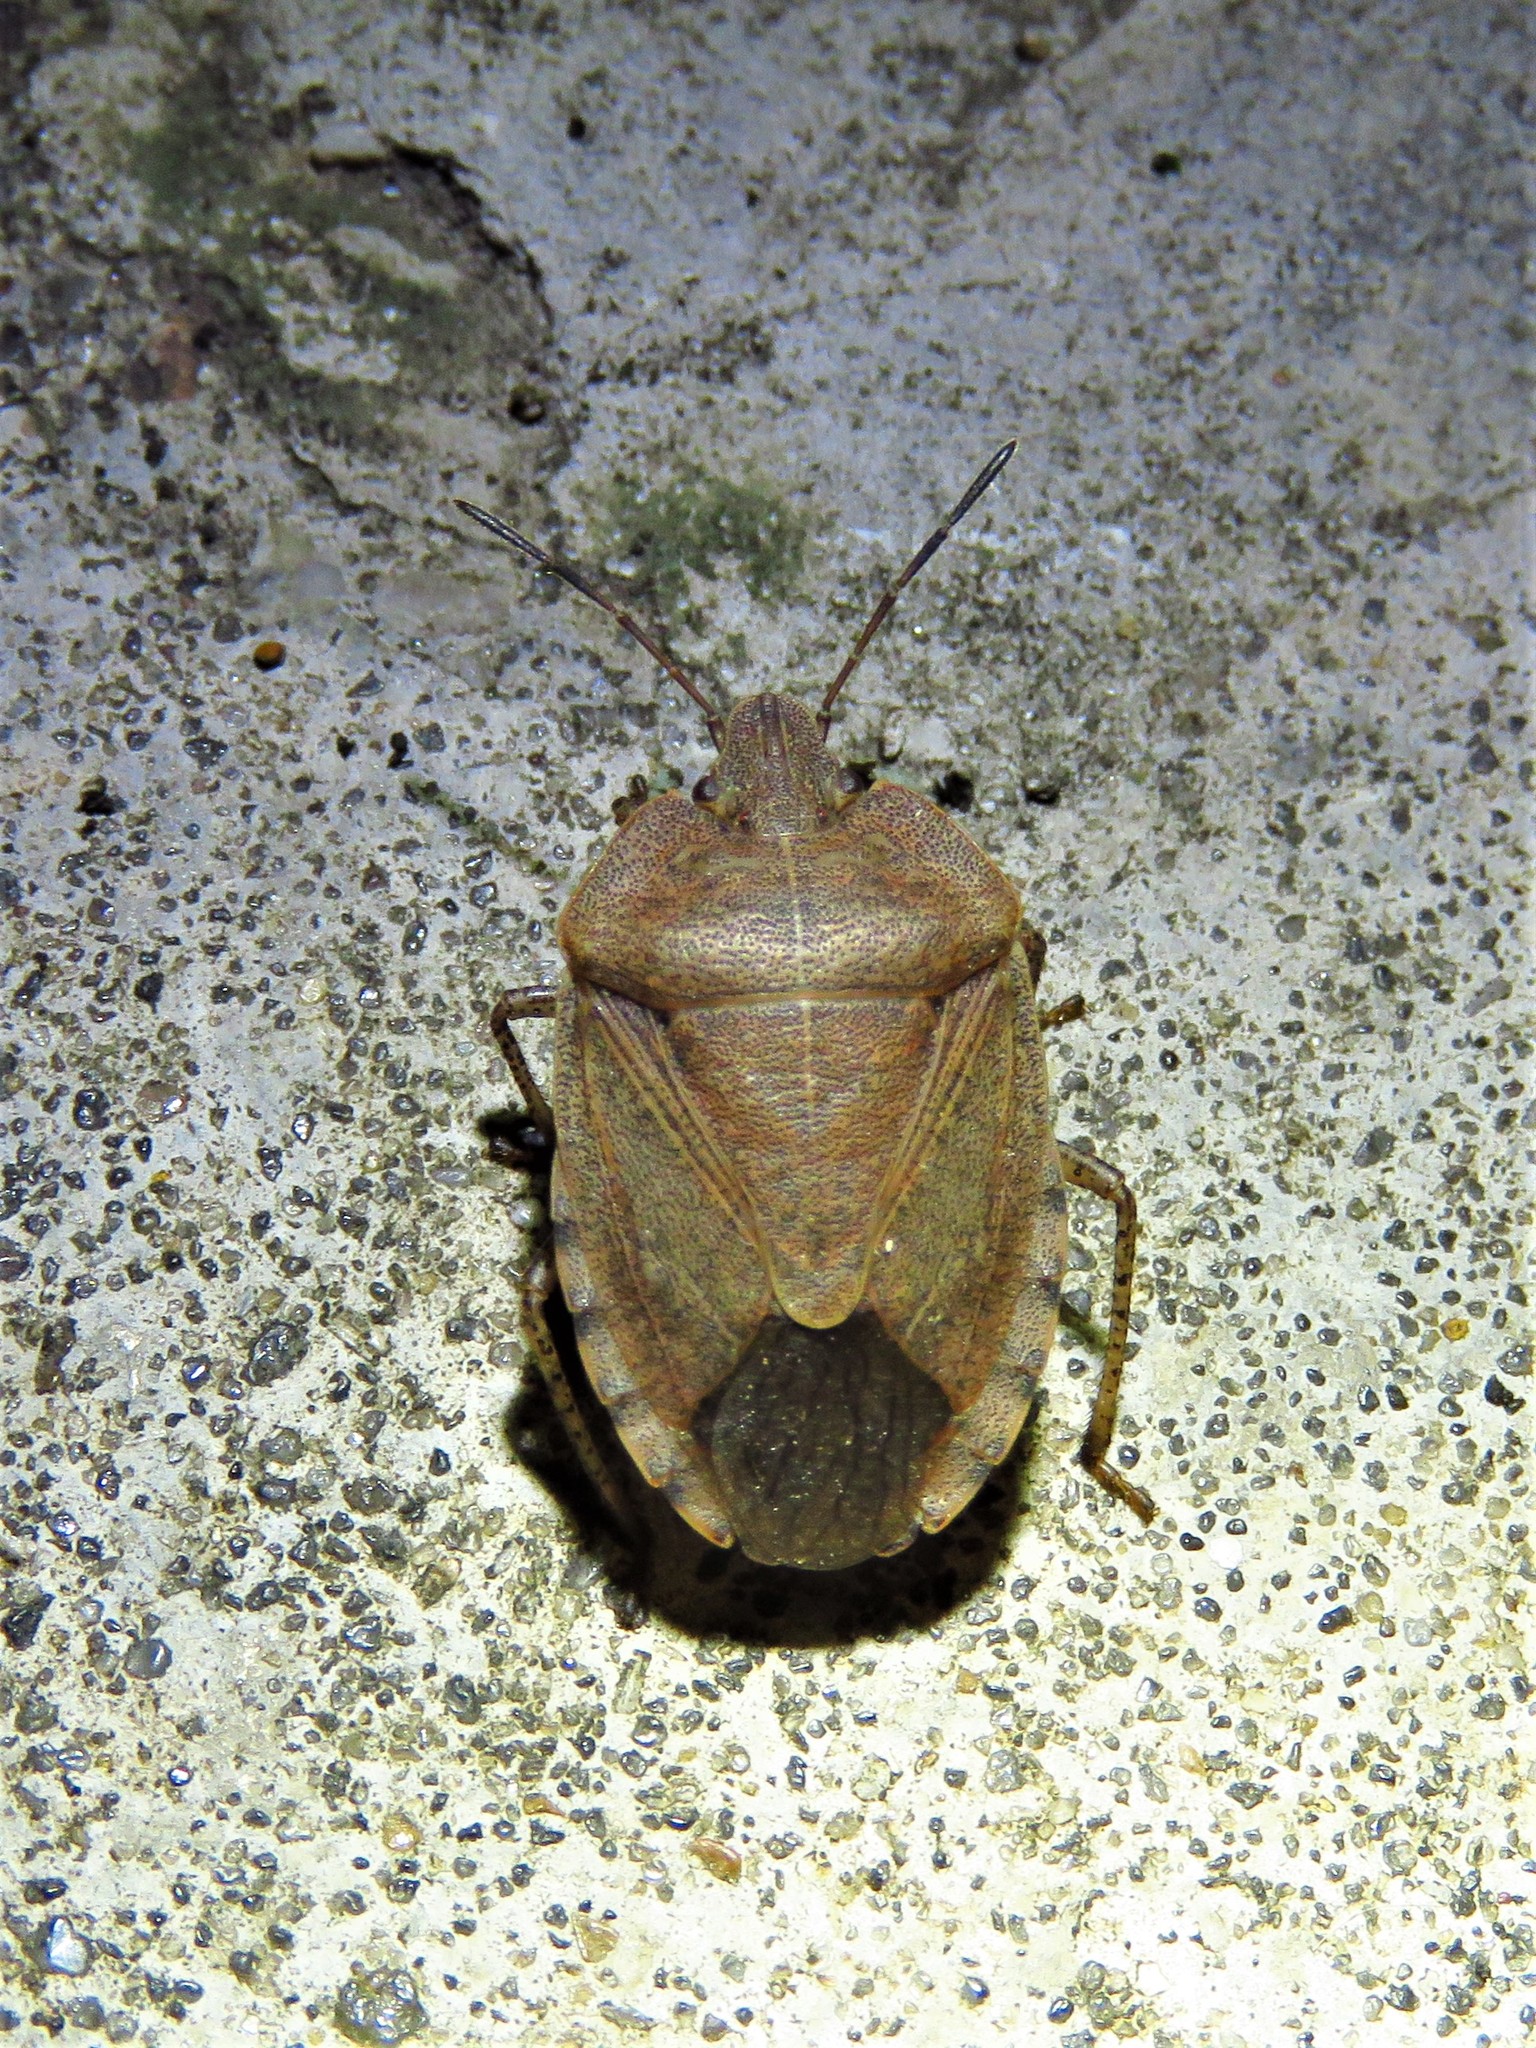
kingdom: Animalia
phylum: Arthropoda
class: Insecta
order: Hemiptera
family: Pentatomidae
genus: Menecles
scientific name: Menecles insertus
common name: Elf shoe stink bug
